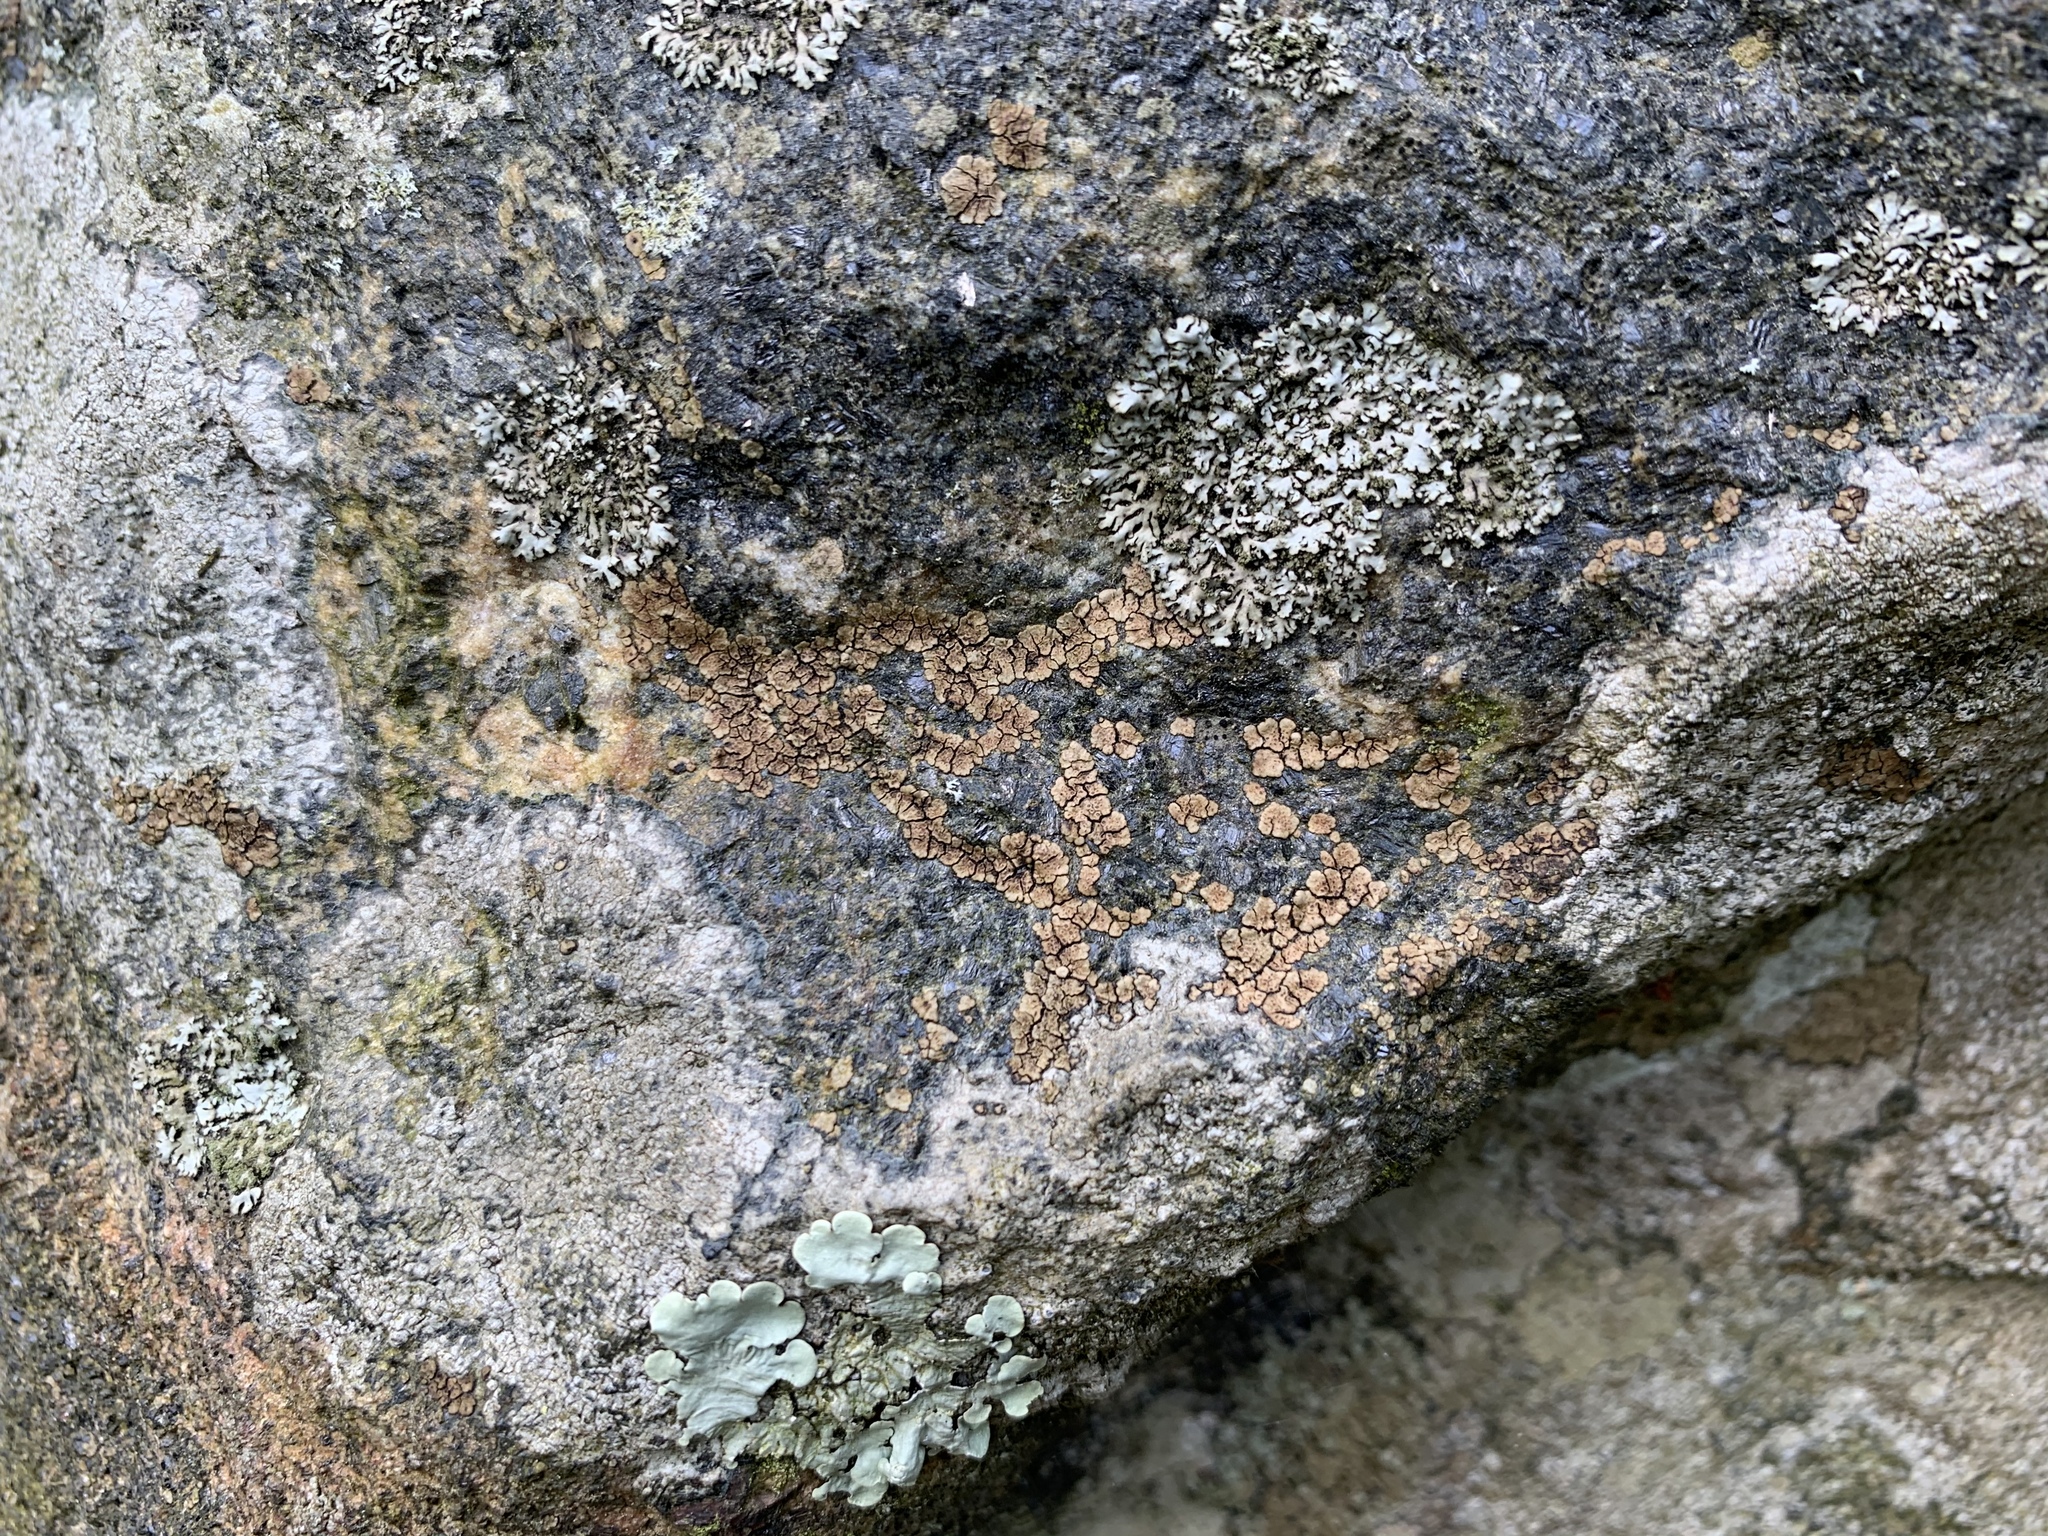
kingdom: Fungi
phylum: Ascomycota
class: Lecanoromycetes
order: Acarosporales
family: Acarosporaceae
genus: Acarospora
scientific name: Acarospora fuscata
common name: Brown cobblestone lichen
